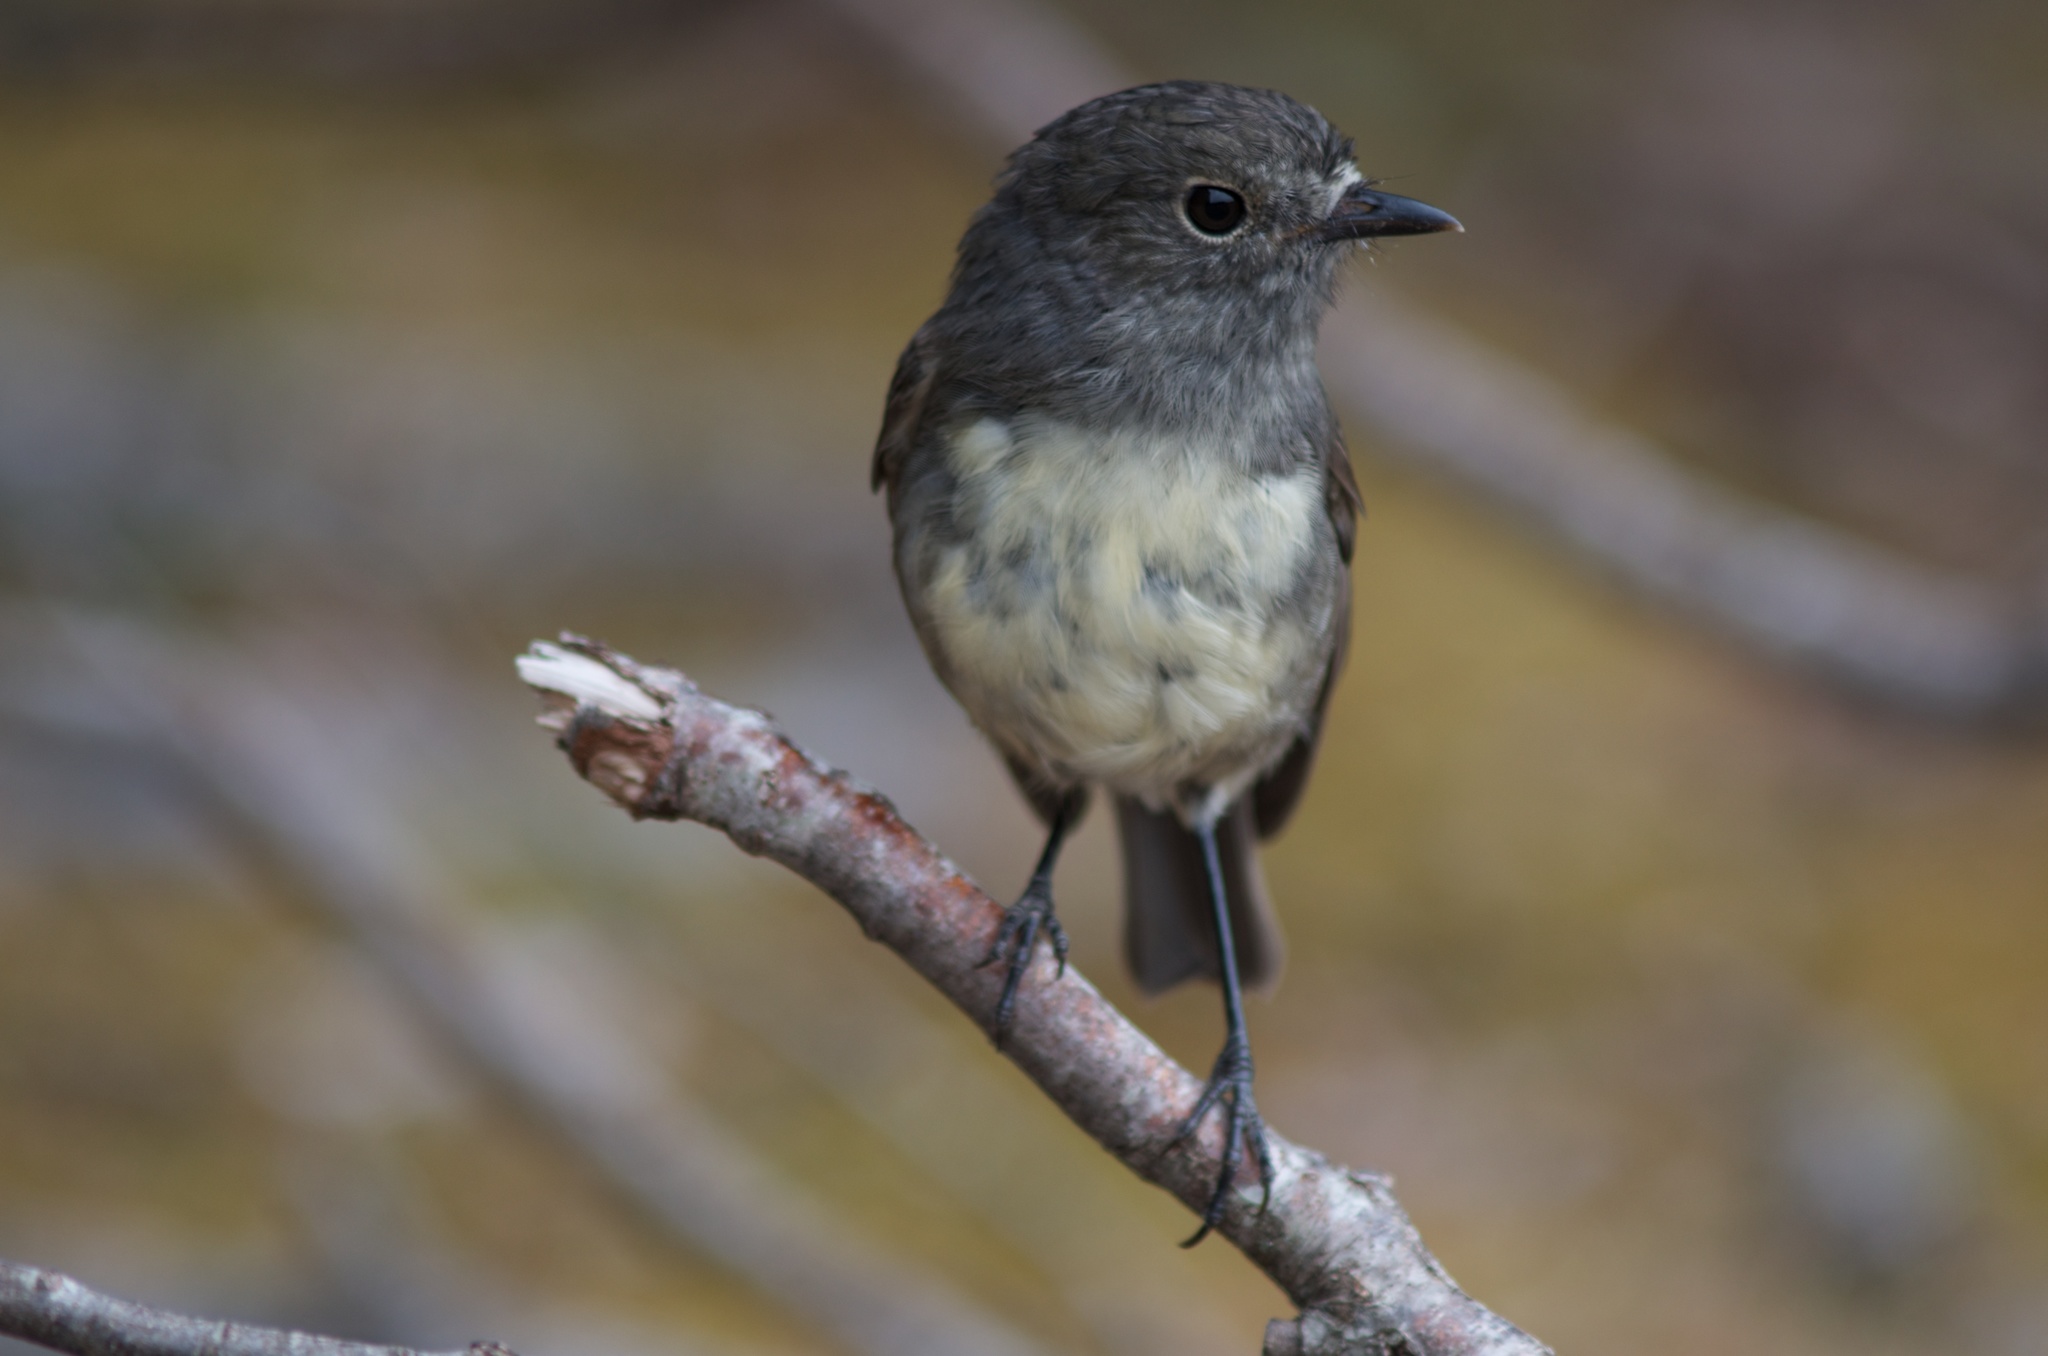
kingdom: Animalia
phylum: Chordata
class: Aves
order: Passeriformes
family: Petroicidae
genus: Petroica
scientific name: Petroica australis
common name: New zealand robin
